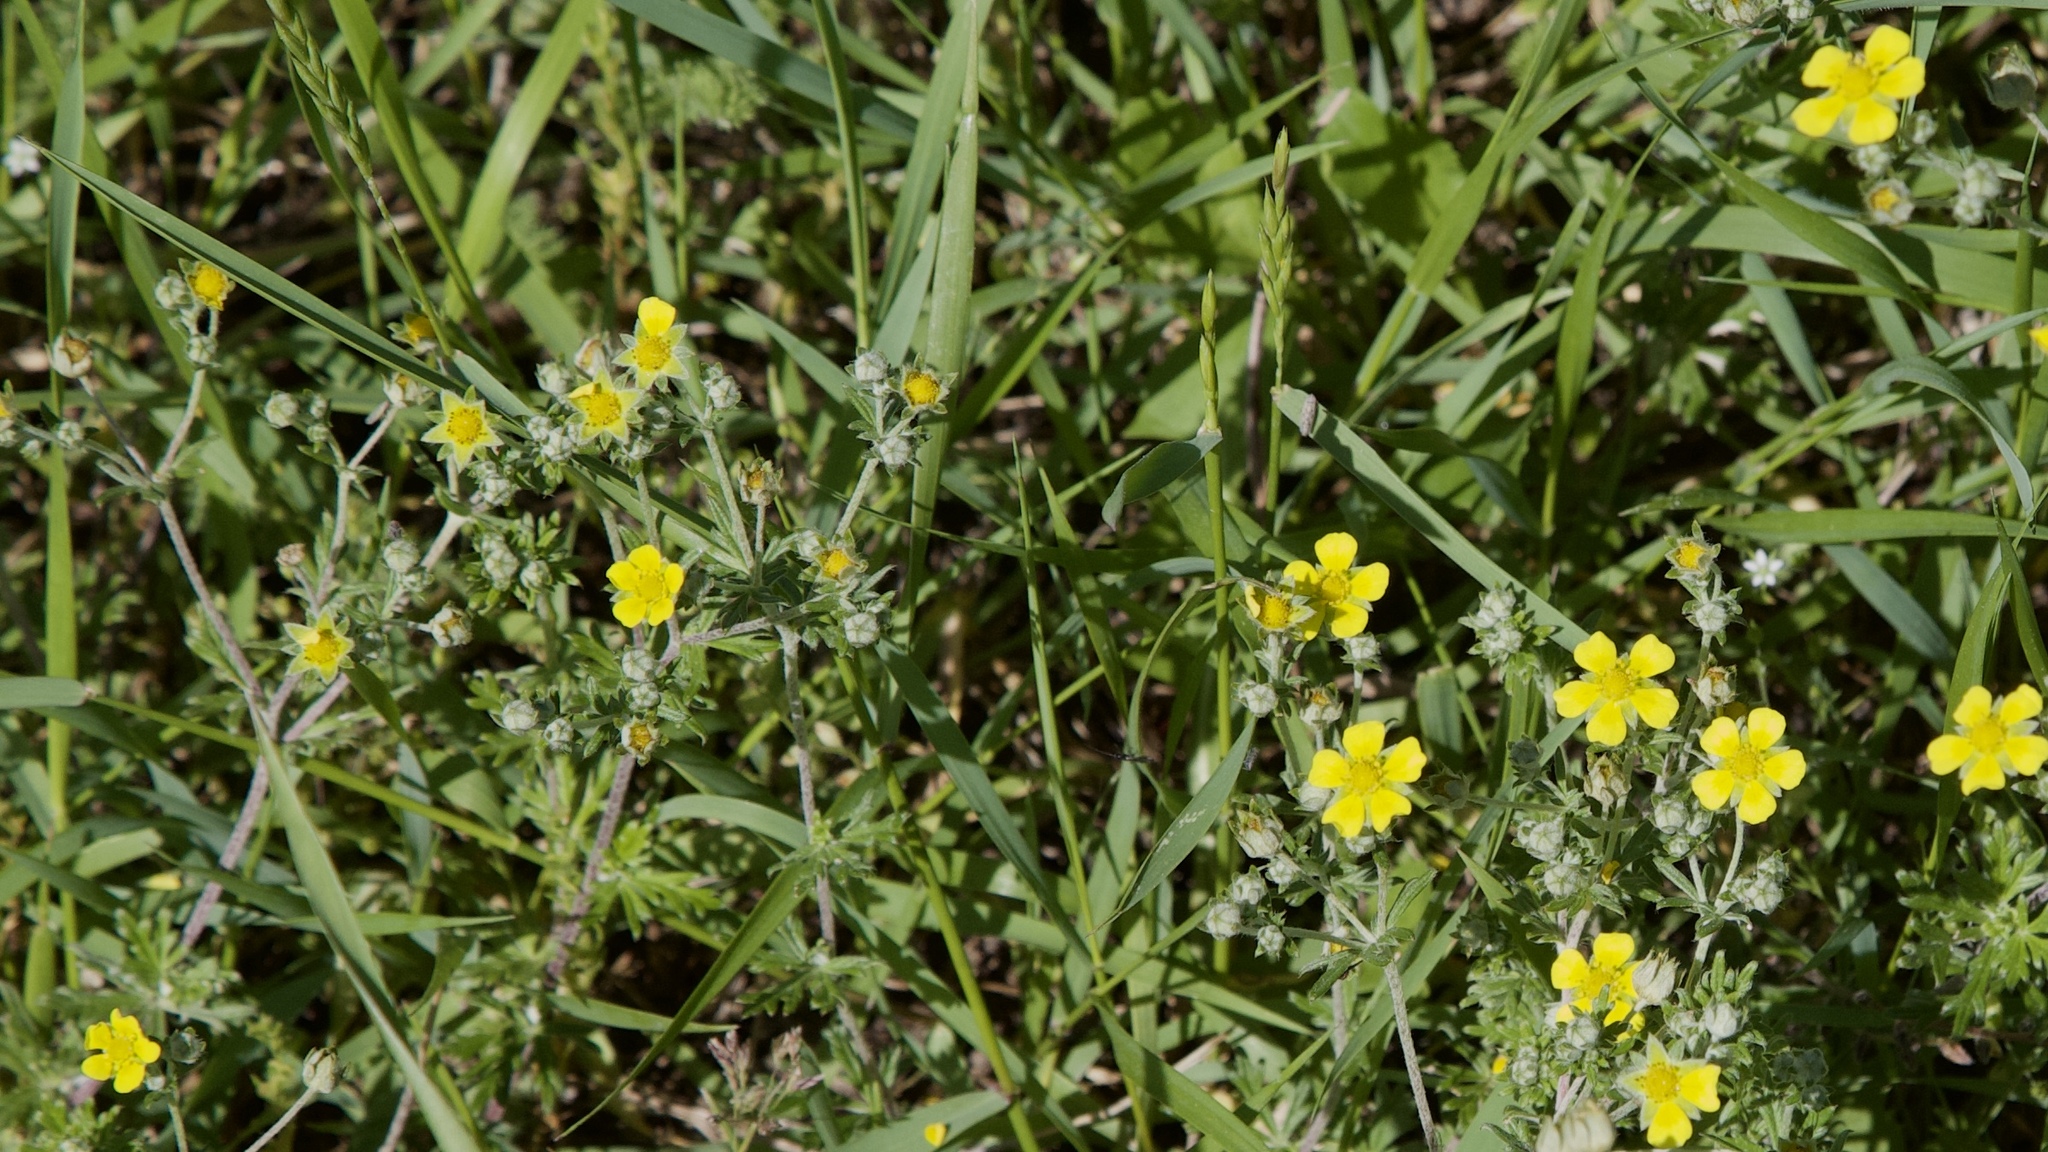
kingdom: Plantae
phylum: Tracheophyta
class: Magnoliopsida
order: Rosales
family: Rosaceae
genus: Potentilla
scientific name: Potentilla argentea
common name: Hoary cinquefoil
